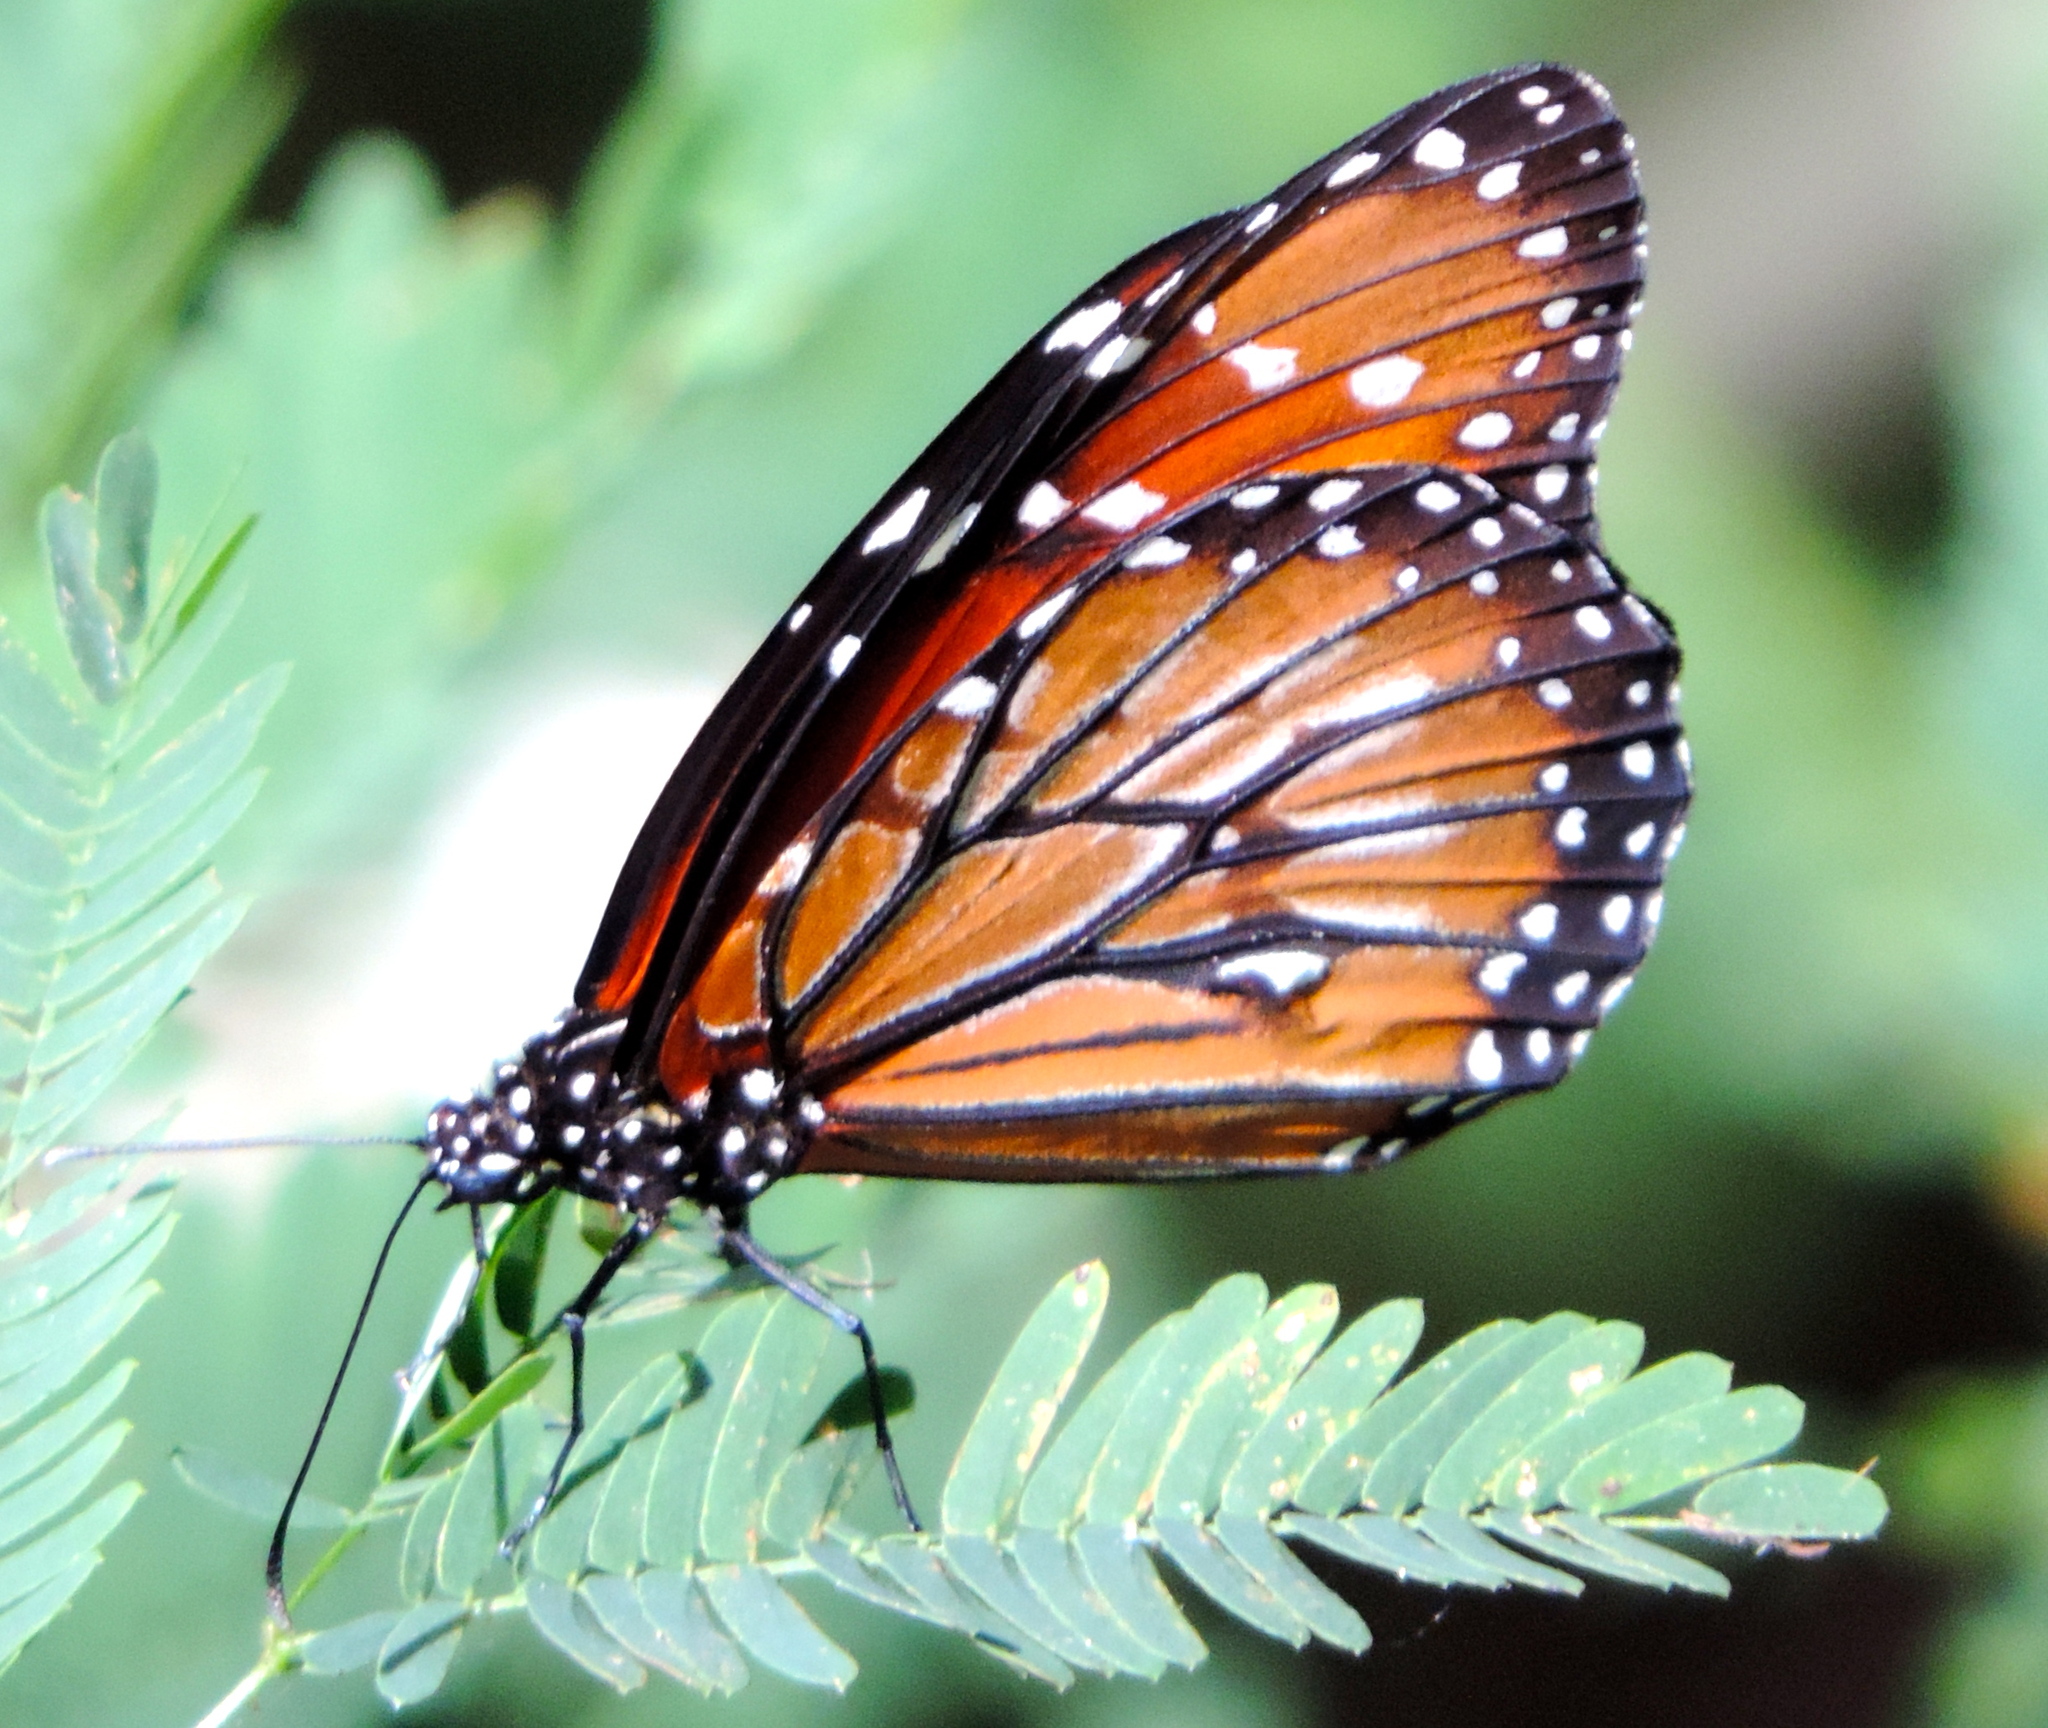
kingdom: Animalia
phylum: Arthropoda
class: Insecta
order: Lepidoptera
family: Nymphalidae
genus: Danaus
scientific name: Danaus eresimus
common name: Soldier
